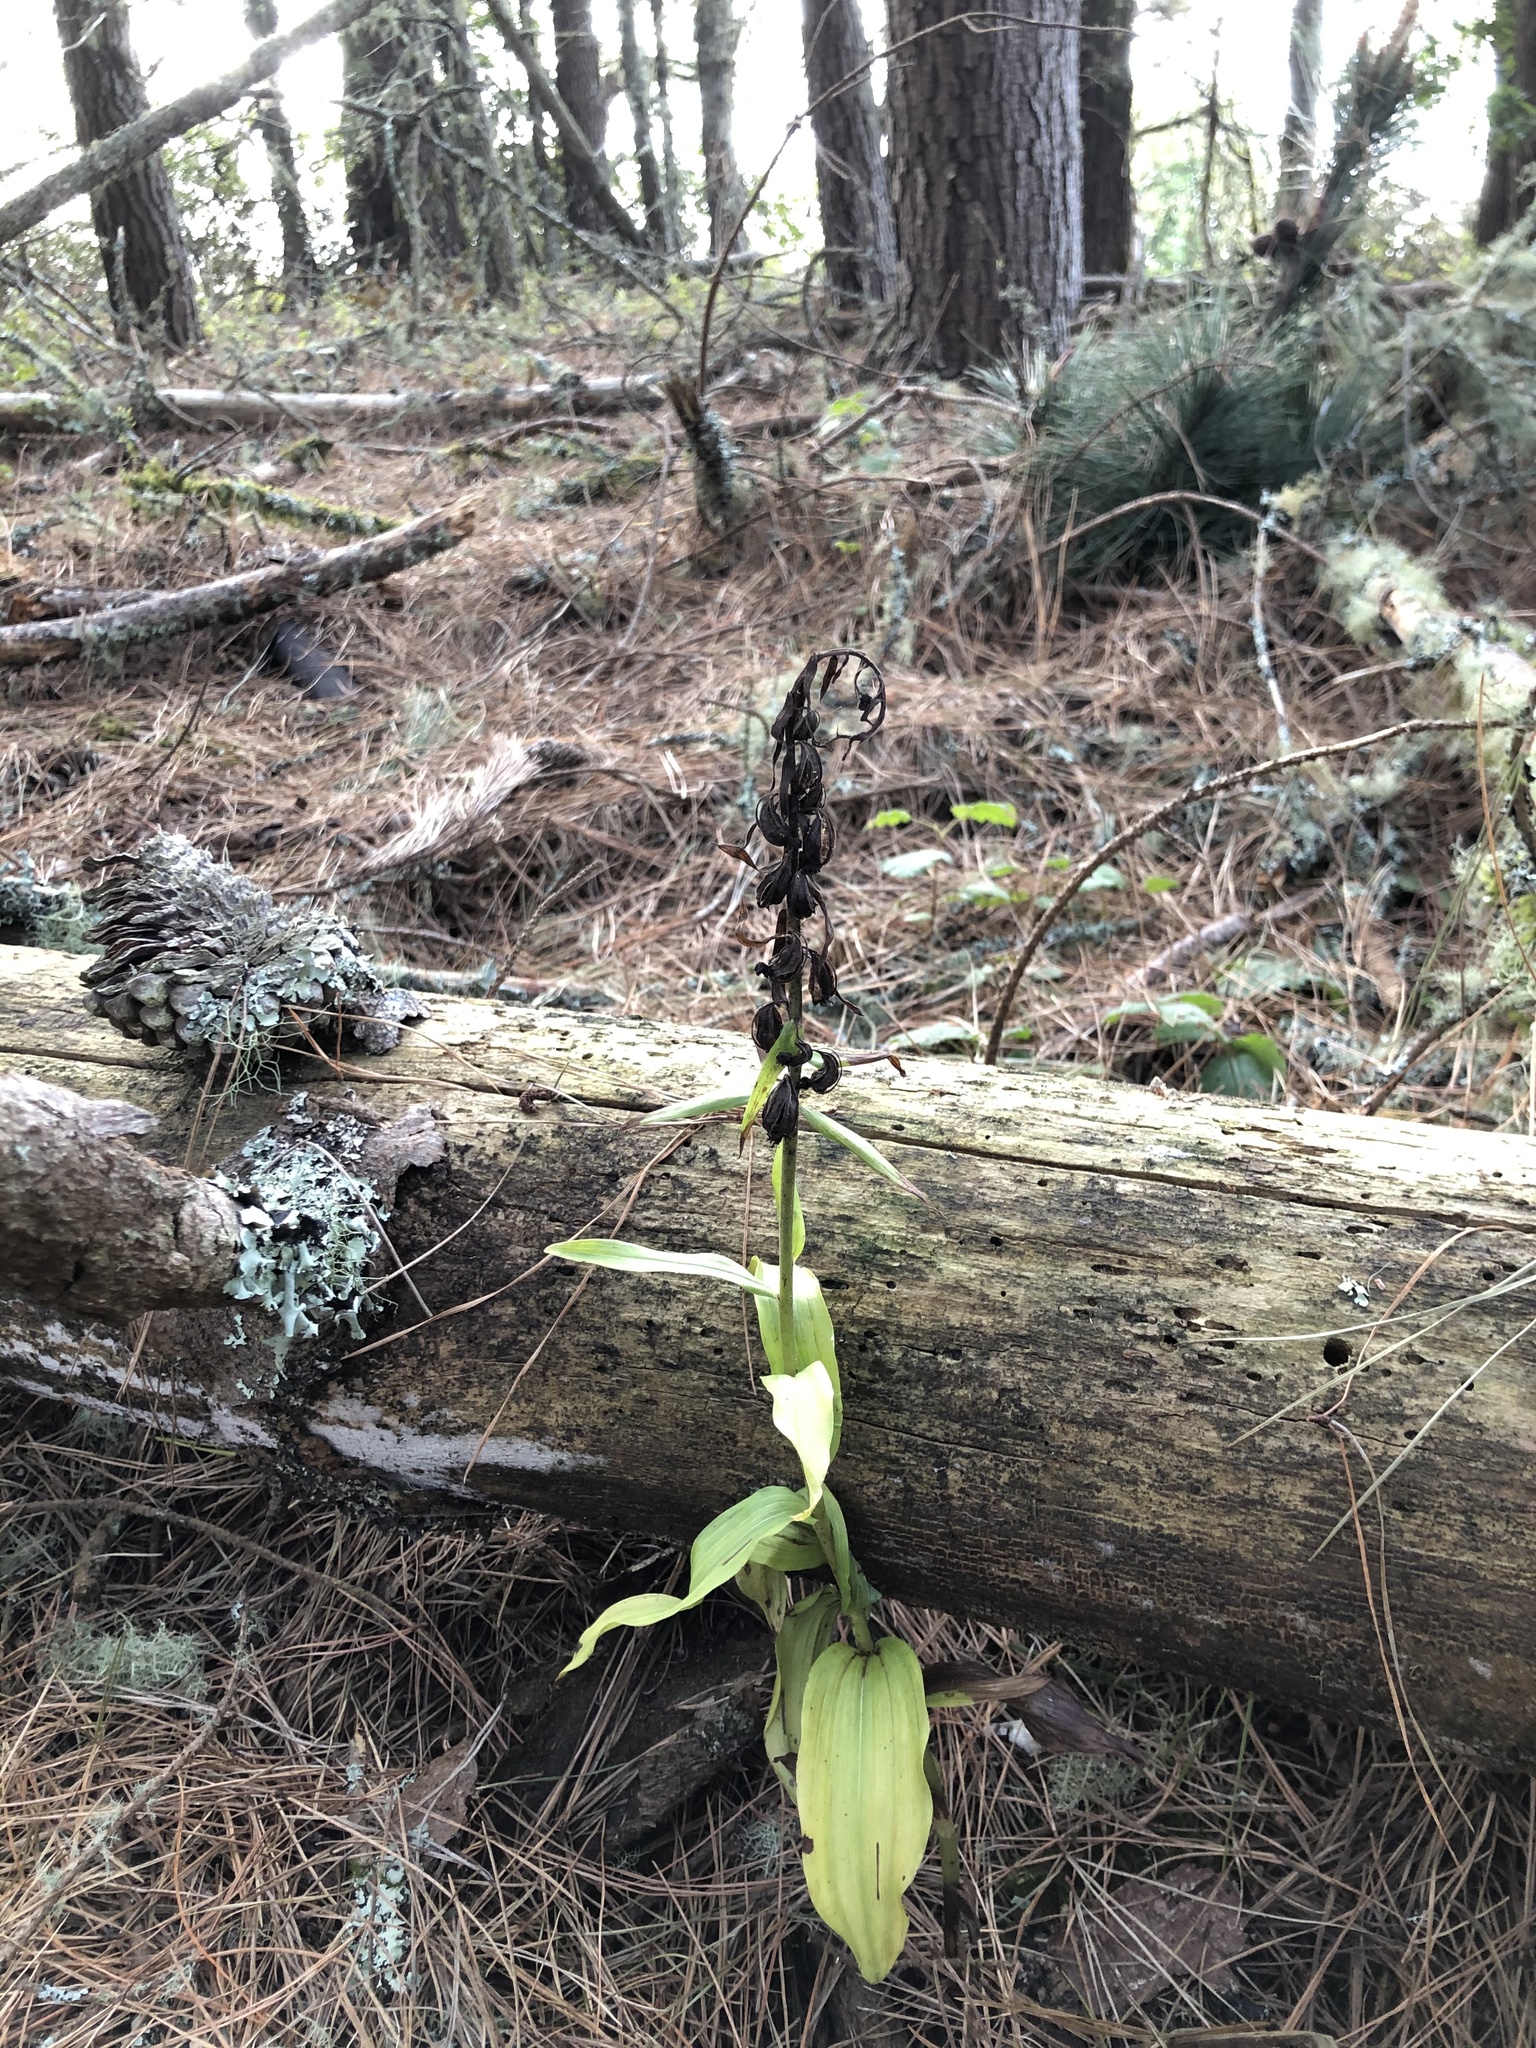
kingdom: Plantae
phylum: Tracheophyta
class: Liliopsida
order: Asparagales
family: Orchidaceae
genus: Epipactis
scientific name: Epipactis helleborine
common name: Broad-leaved helleborine
